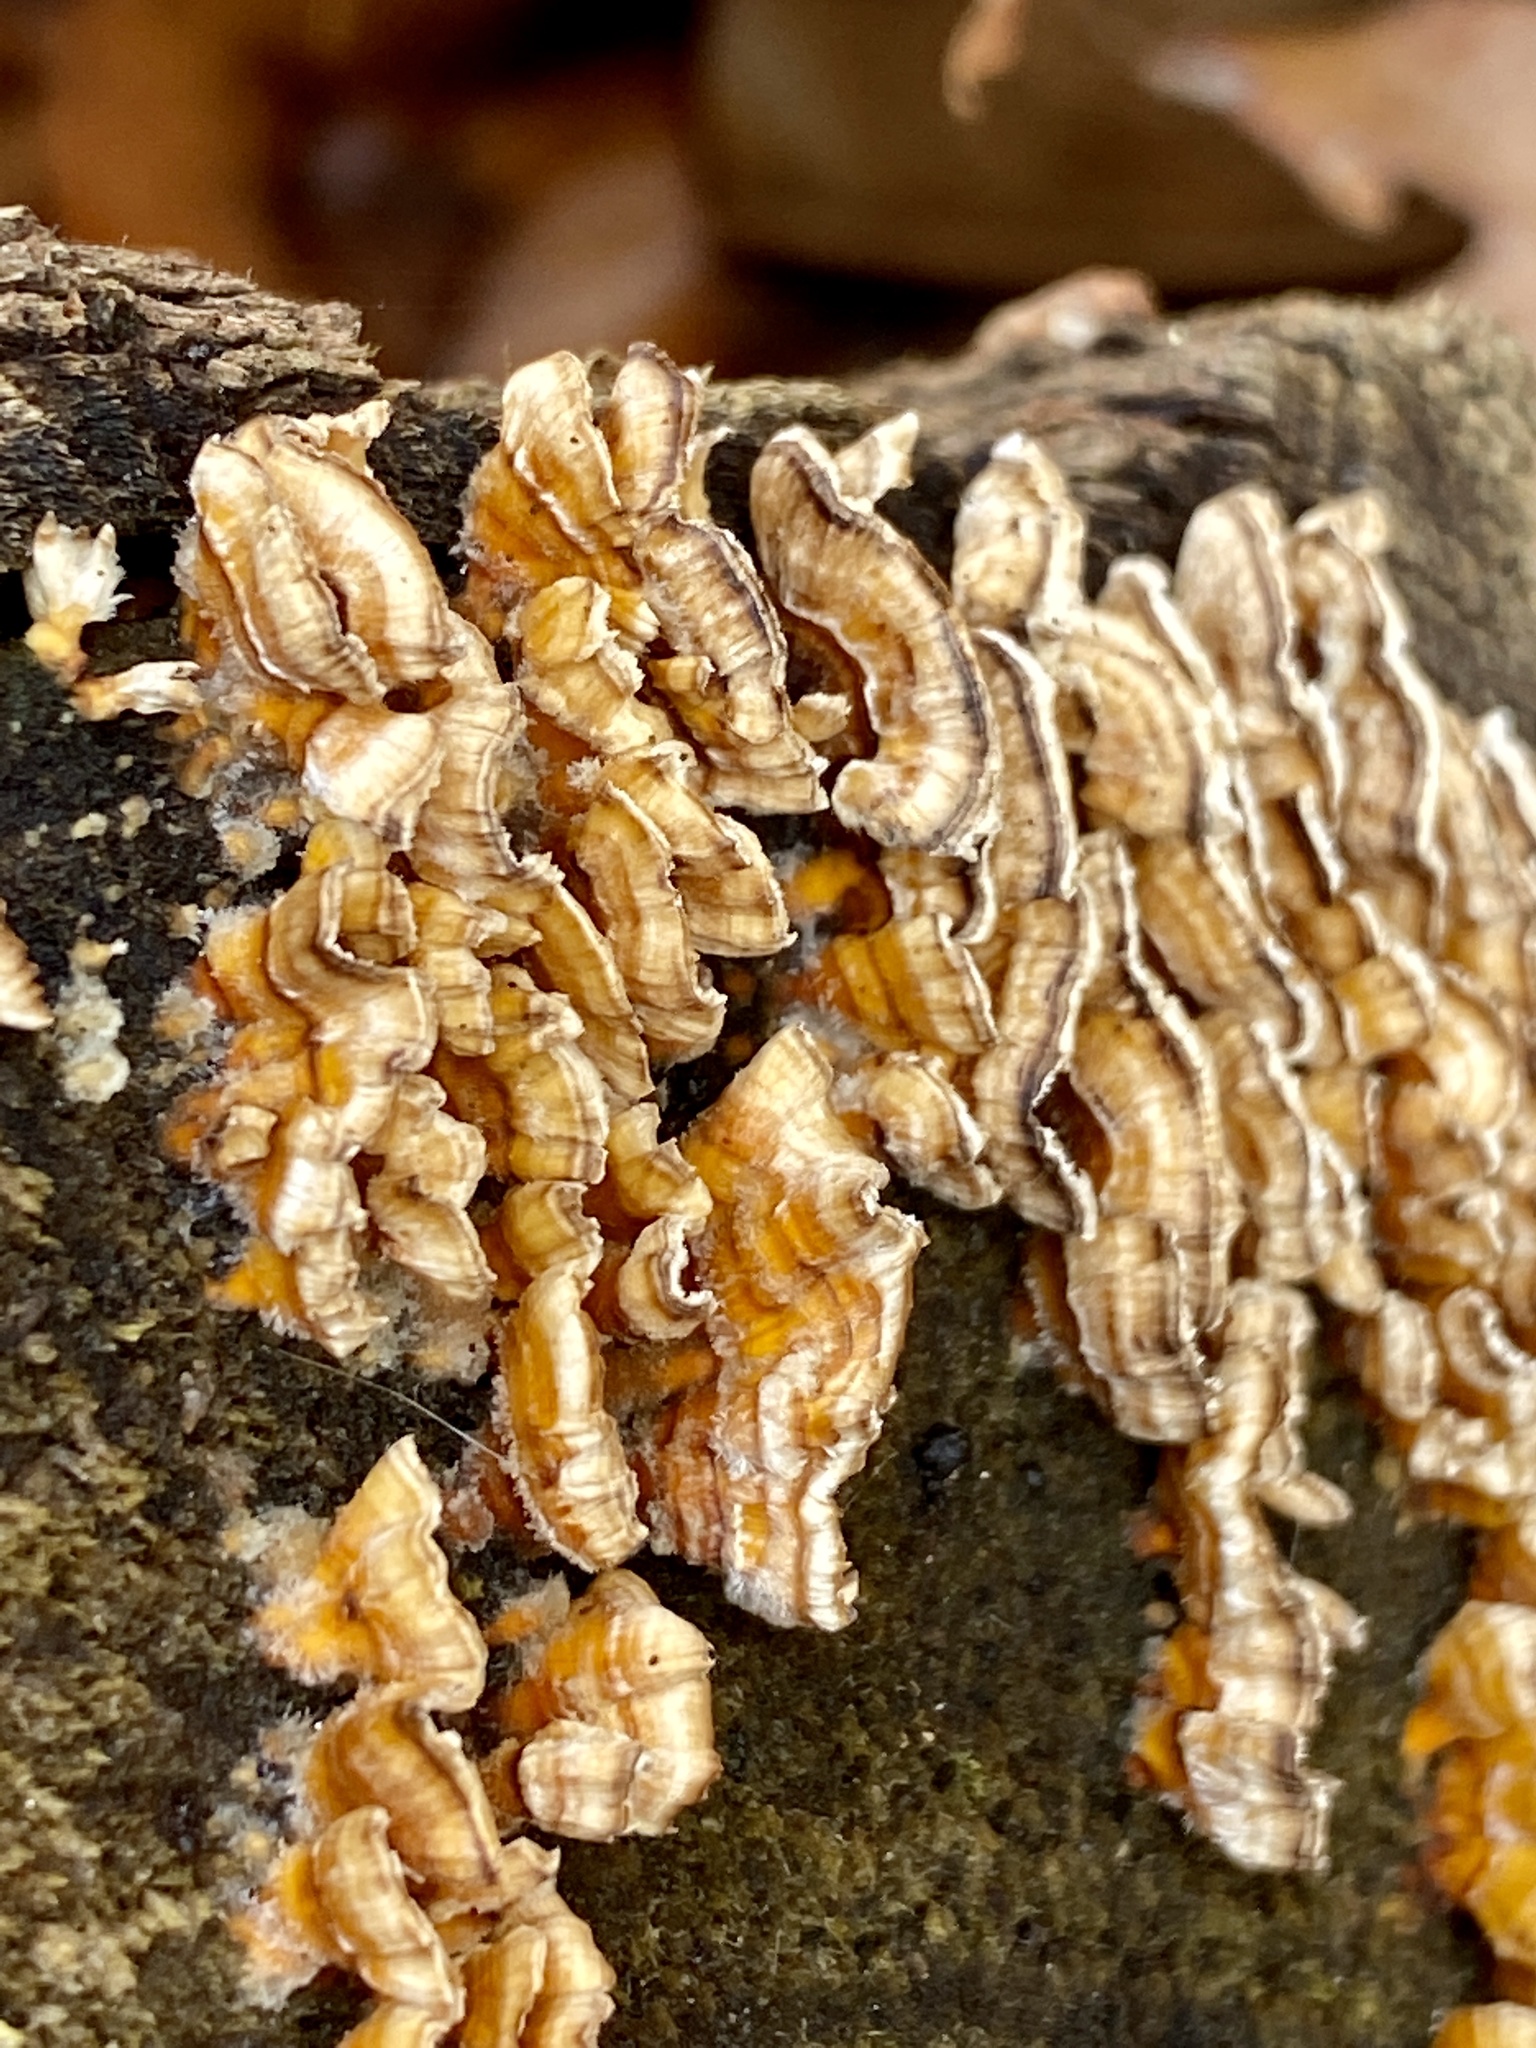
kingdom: Fungi
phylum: Basidiomycota
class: Agaricomycetes
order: Russulales
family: Stereaceae
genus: Stereum
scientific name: Stereum complicatum
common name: Crowded parchment
